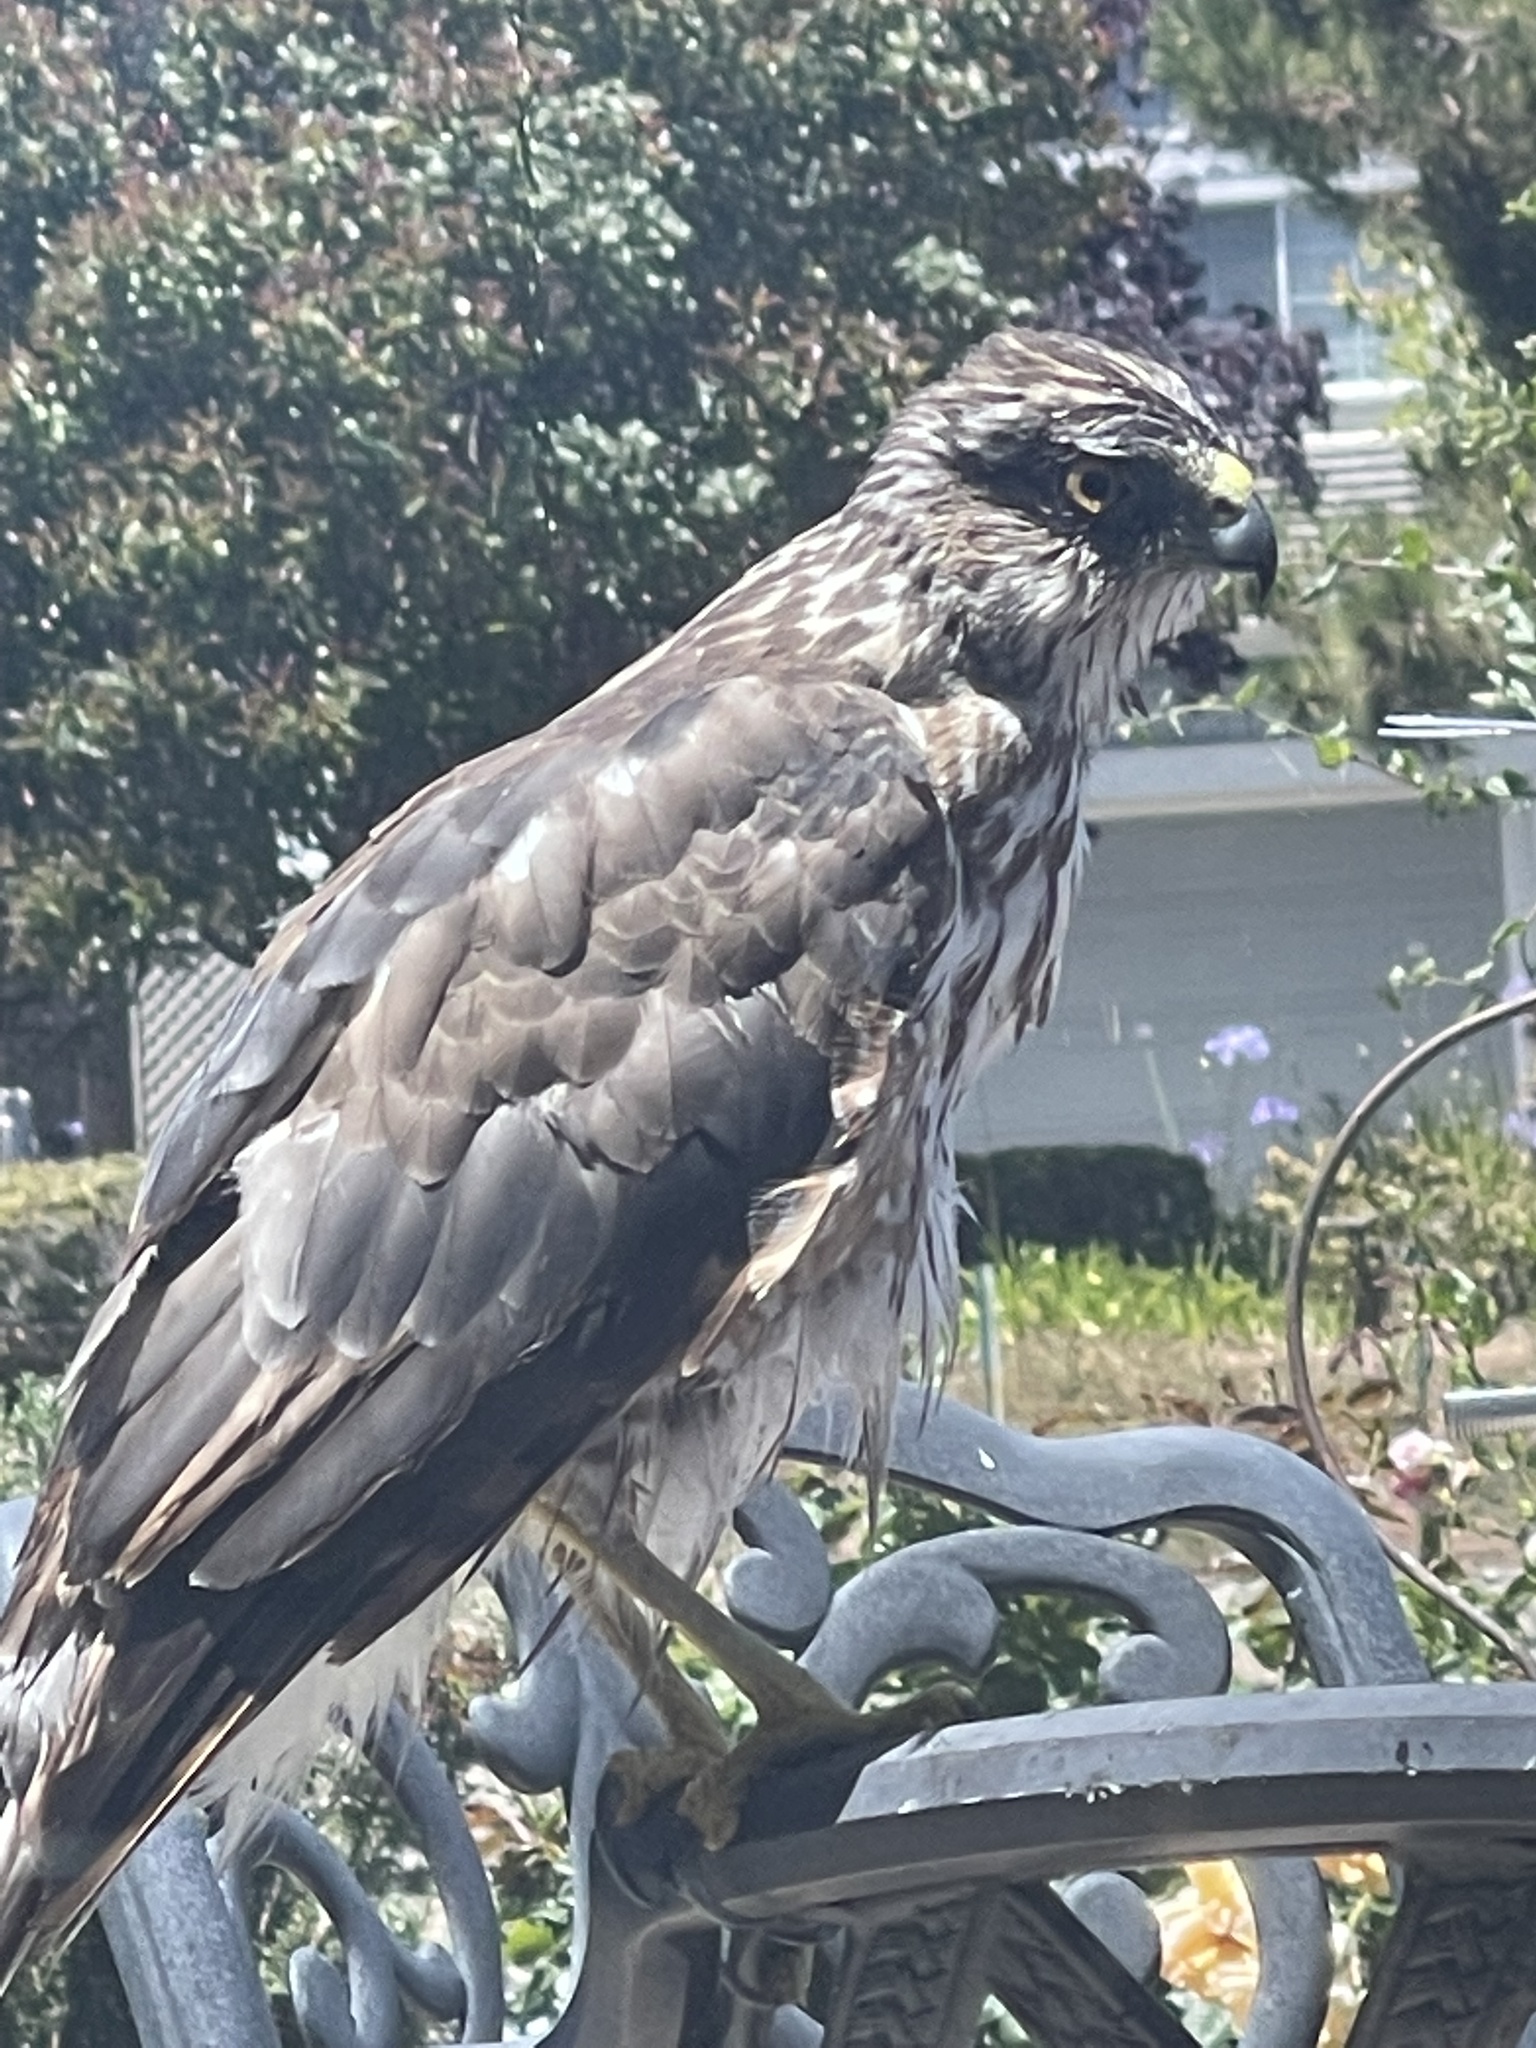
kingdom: Animalia
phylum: Chordata
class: Aves
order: Accipitriformes
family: Accipitridae
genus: Accipiter
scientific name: Accipiter cooperii
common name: Cooper's hawk
